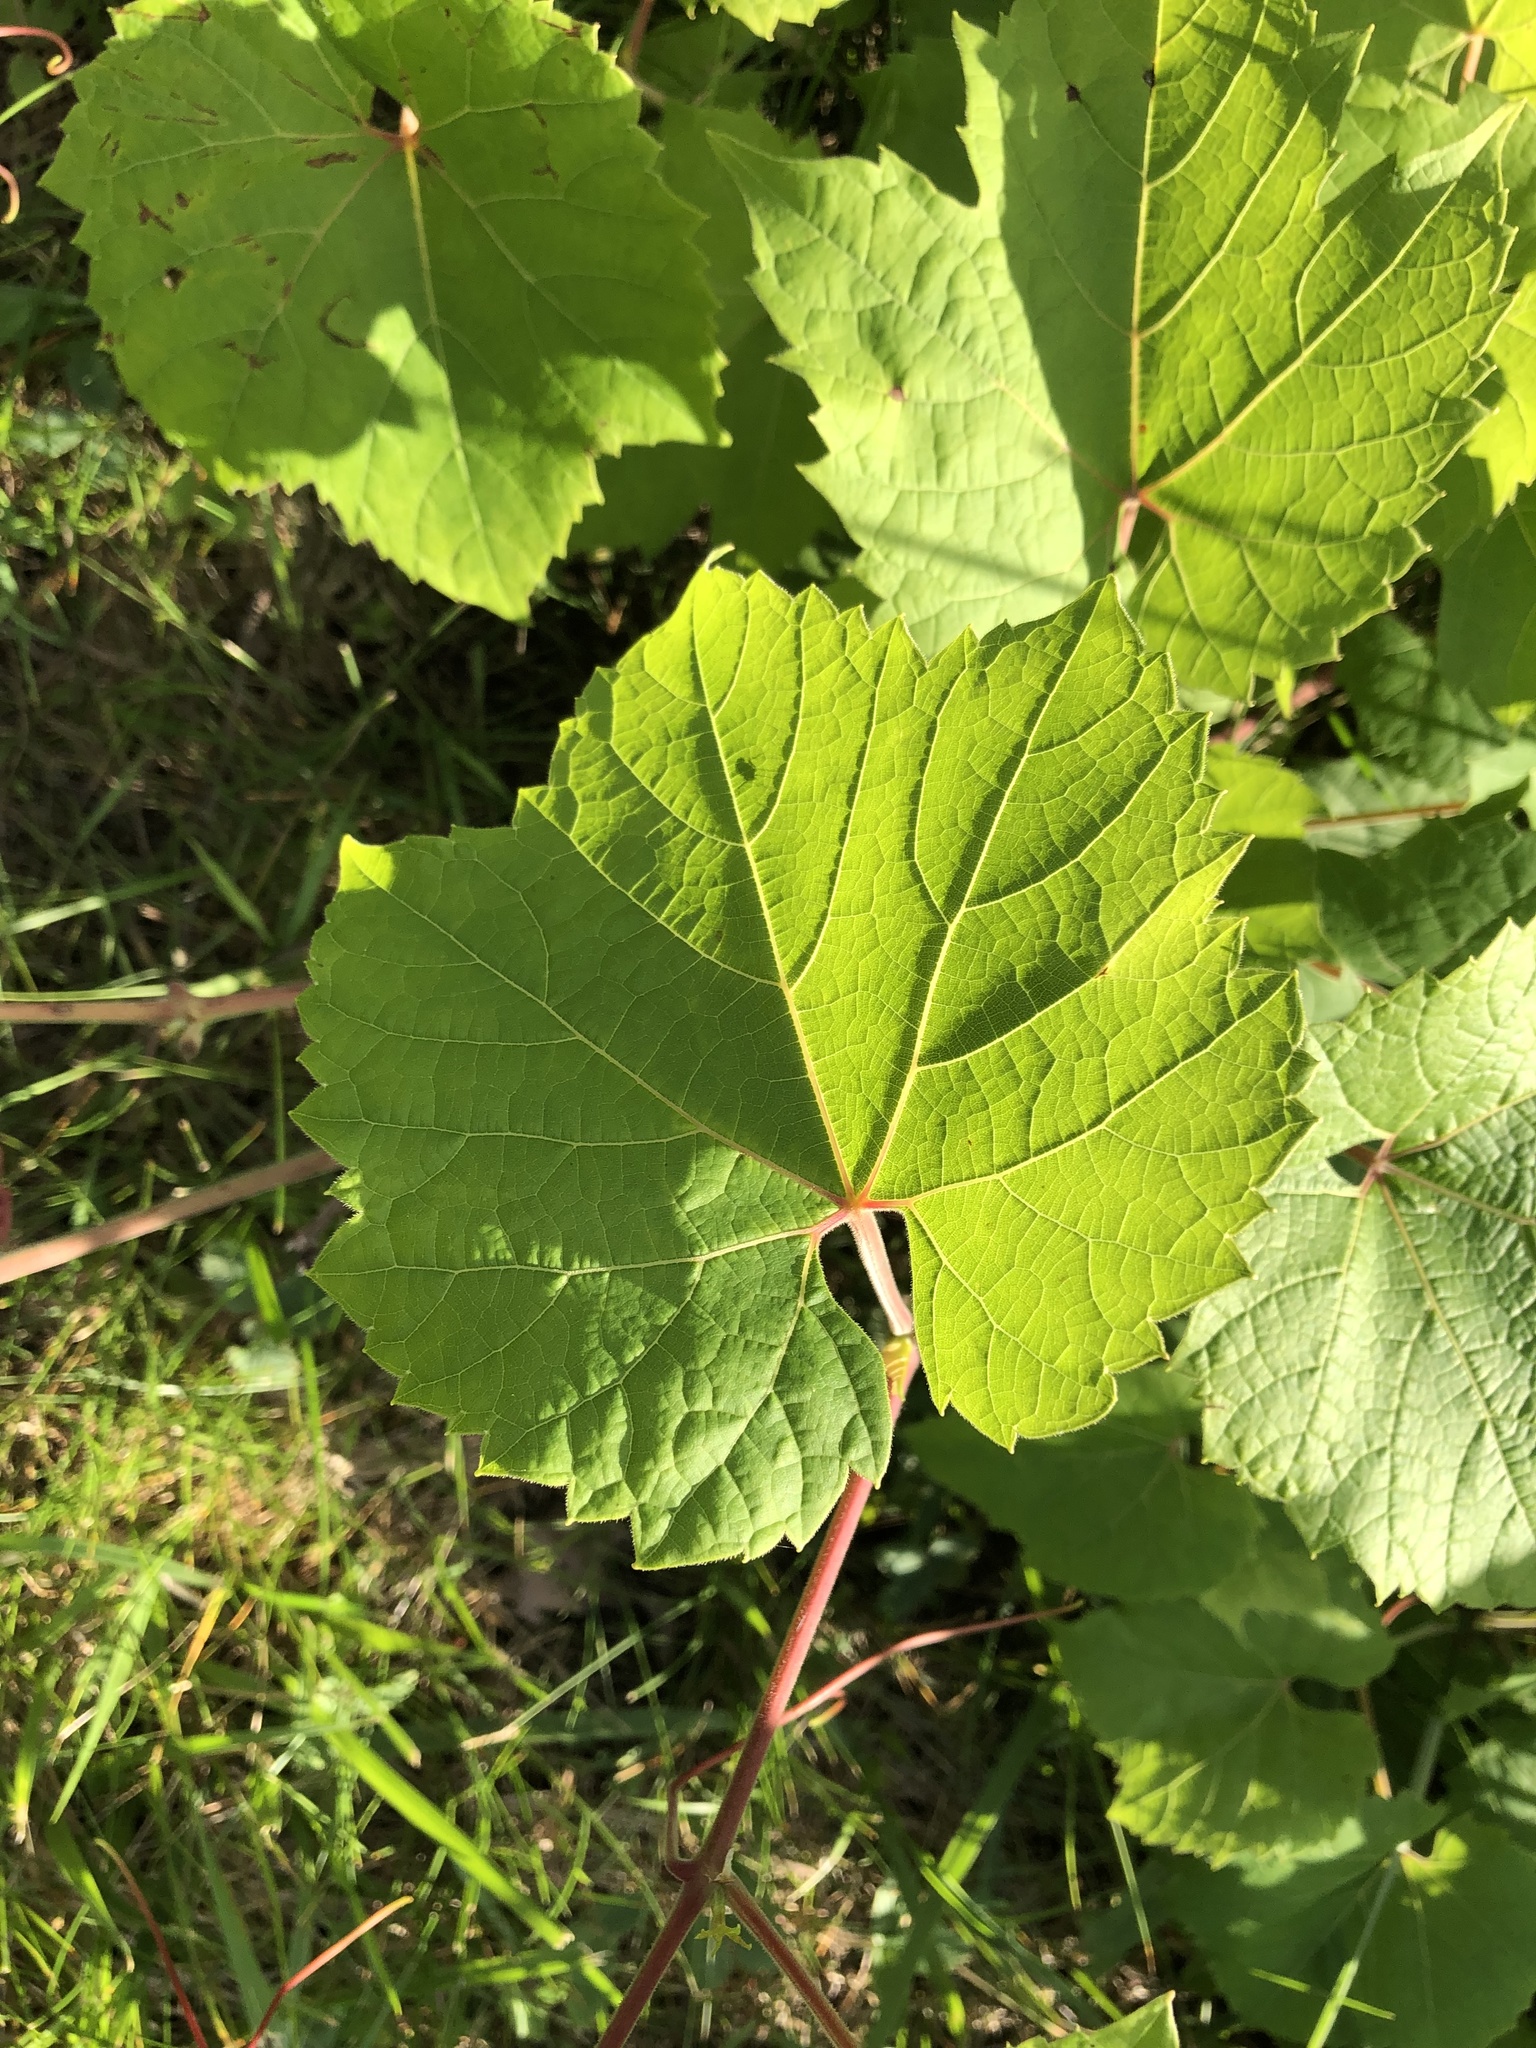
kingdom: Plantae
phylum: Tracheophyta
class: Magnoliopsida
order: Vitales
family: Vitaceae
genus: Vitis
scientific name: Vitis riparia
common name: Frost grape
